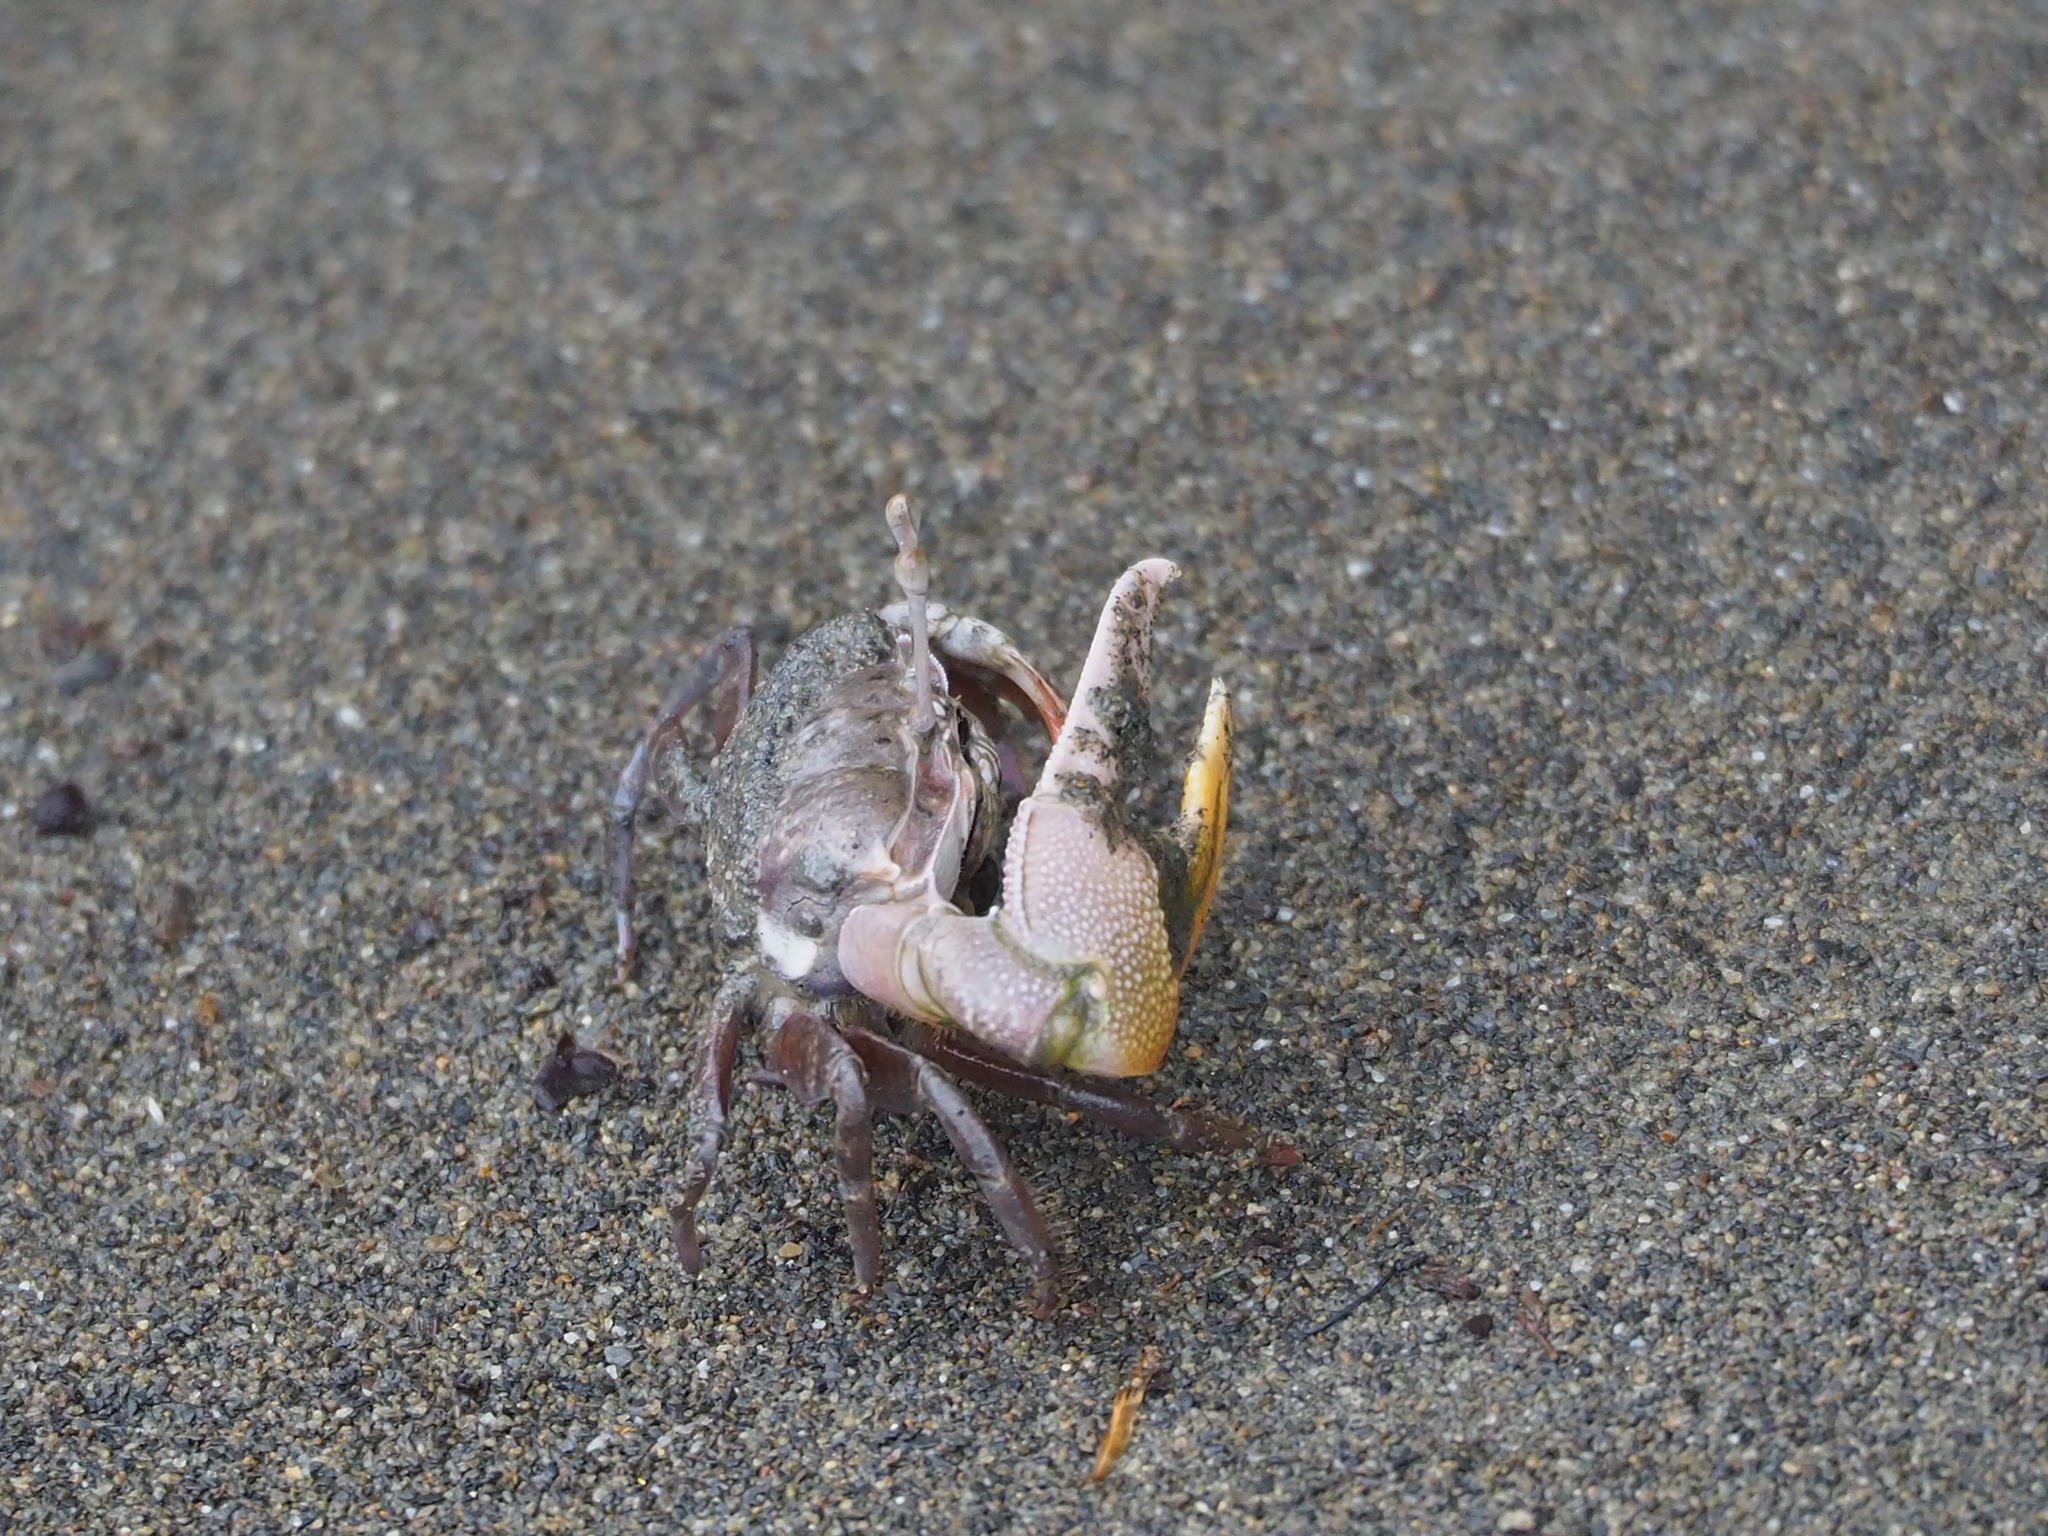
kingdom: Animalia
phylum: Arthropoda
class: Malacostraca
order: Decapoda
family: Ocypodidae
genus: Gelasimus
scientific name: Gelasimus borealis
